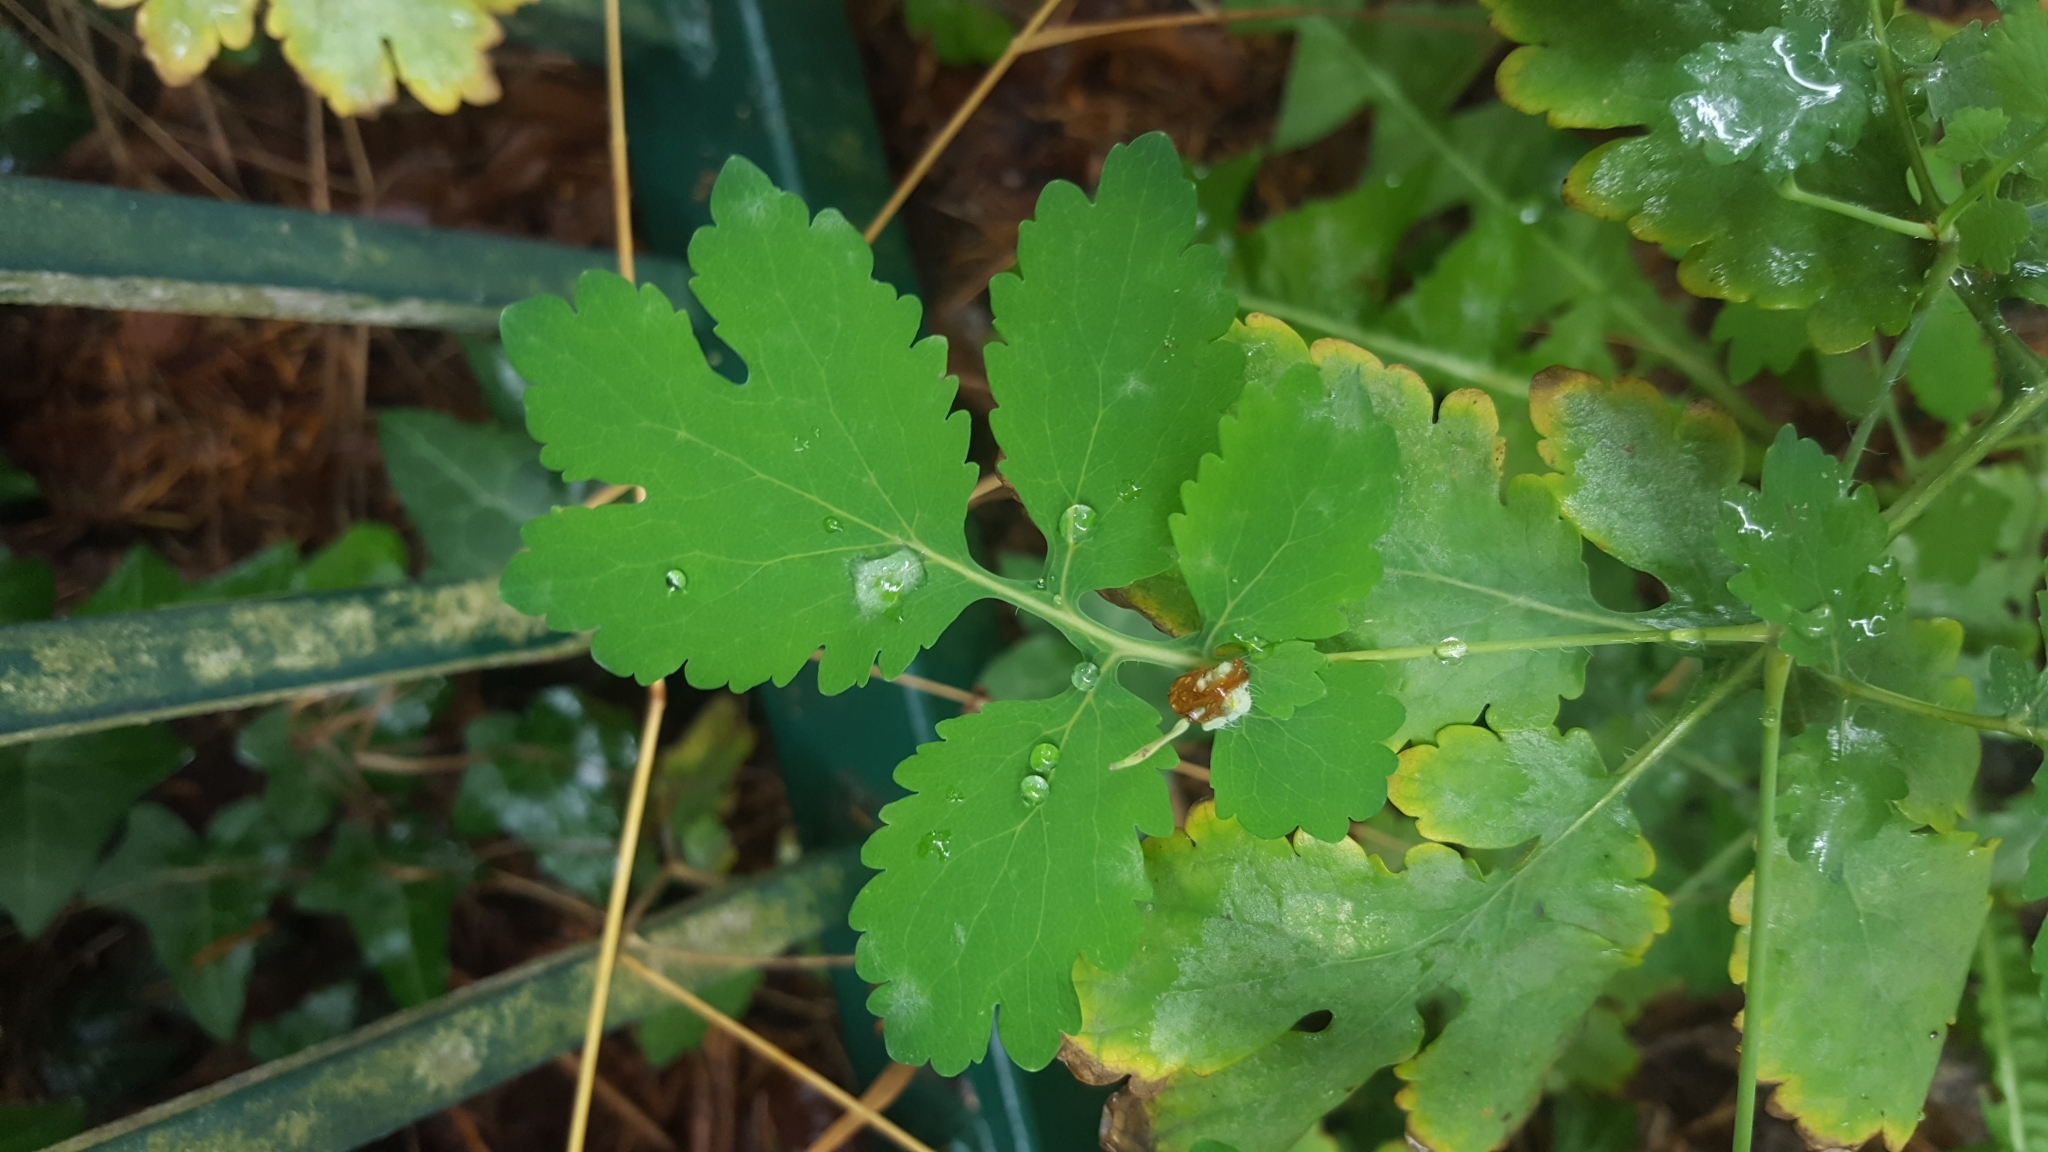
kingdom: Plantae
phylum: Tracheophyta
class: Magnoliopsida
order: Ranunculales
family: Papaveraceae
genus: Chelidonium
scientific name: Chelidonium majus
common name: Greater celandine
